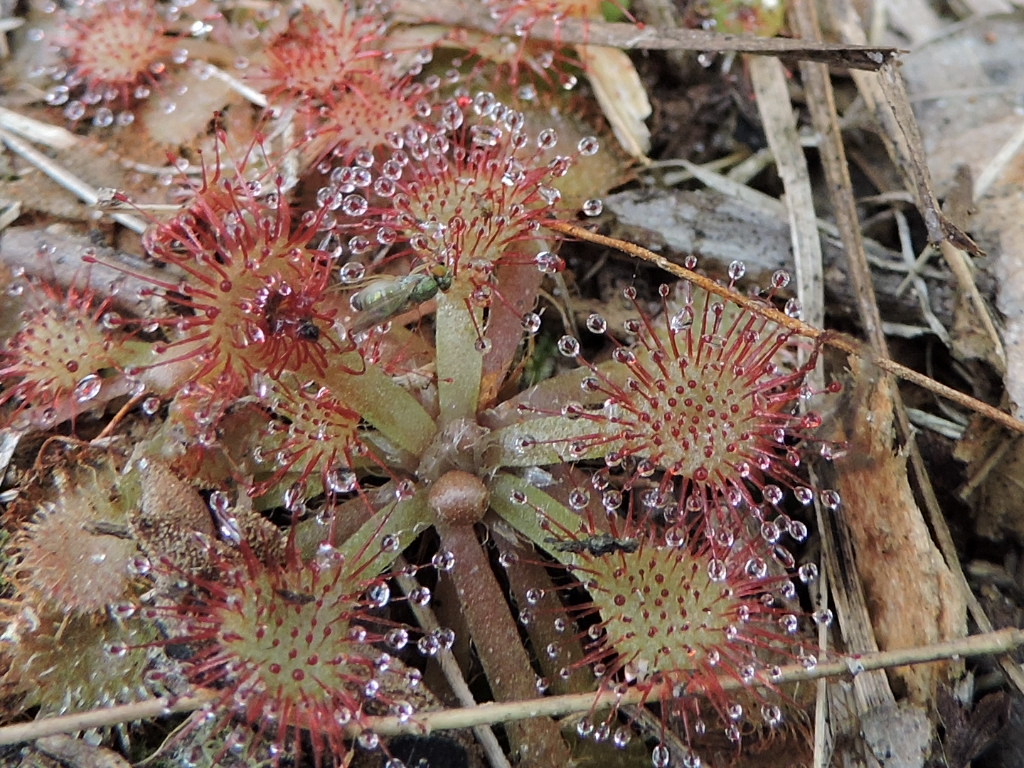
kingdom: Plantae
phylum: Tracheophyta
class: Magnoliopsida
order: Caryophyllales
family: Droseraceae
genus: Drosera
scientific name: Drosera capillaris
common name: Pink sundew
